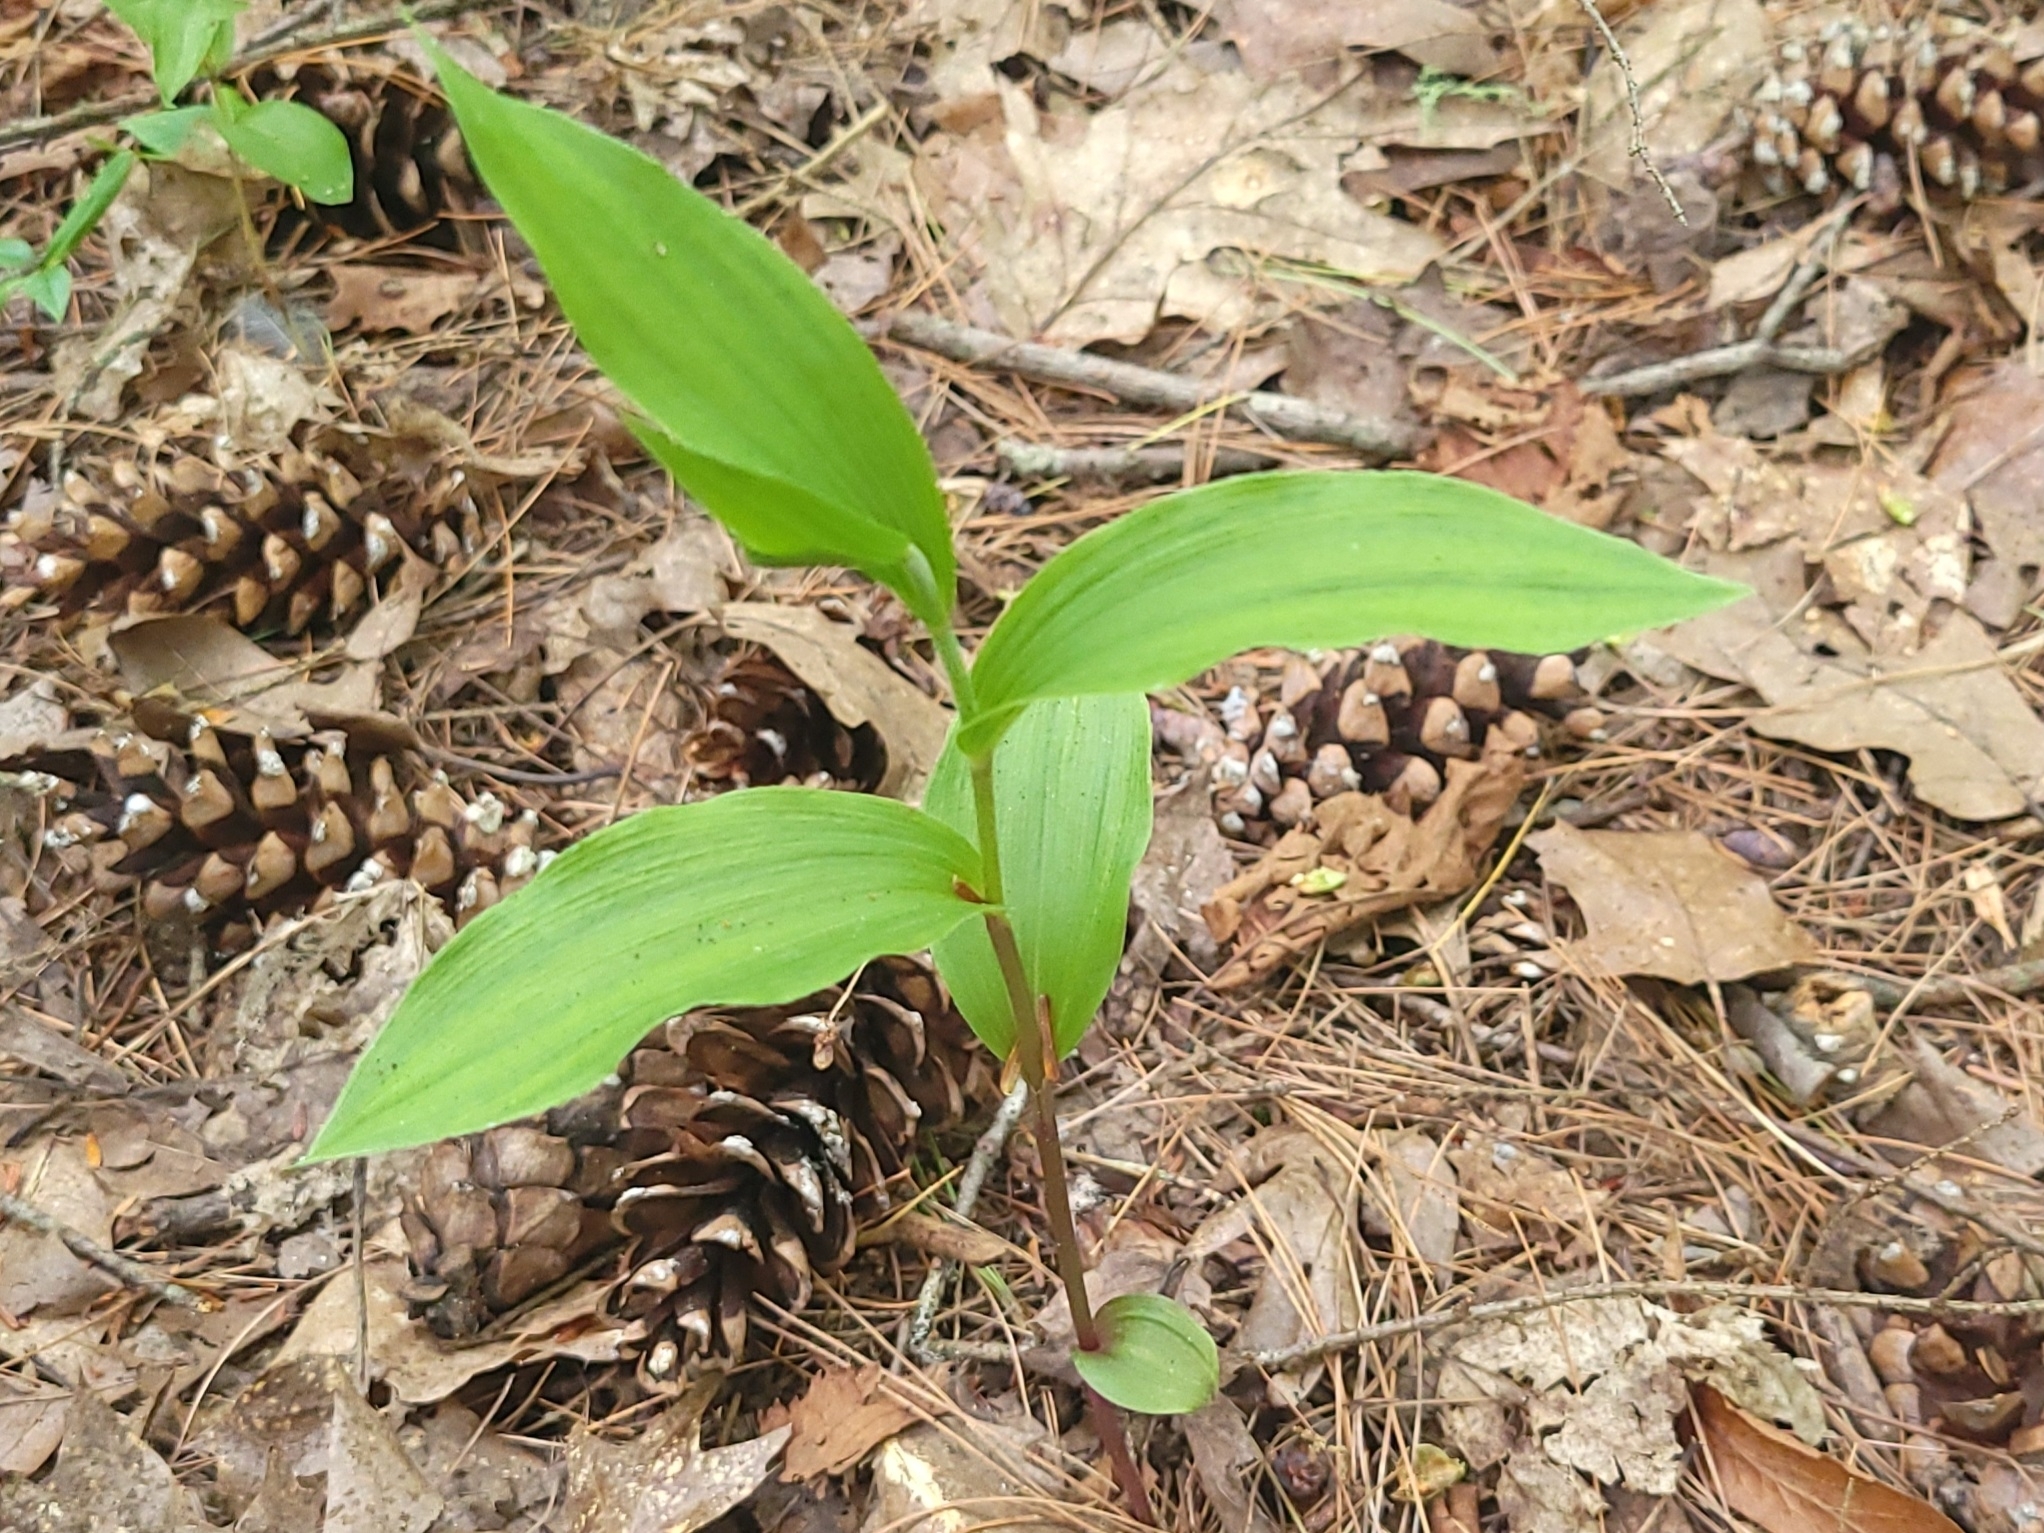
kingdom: Plantae
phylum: Tracheophyta
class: Liliopsida
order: Asparagales
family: Orchidaceae
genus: Epipactis
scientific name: Epipactis helleborine
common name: Broad-leaved helleborine
